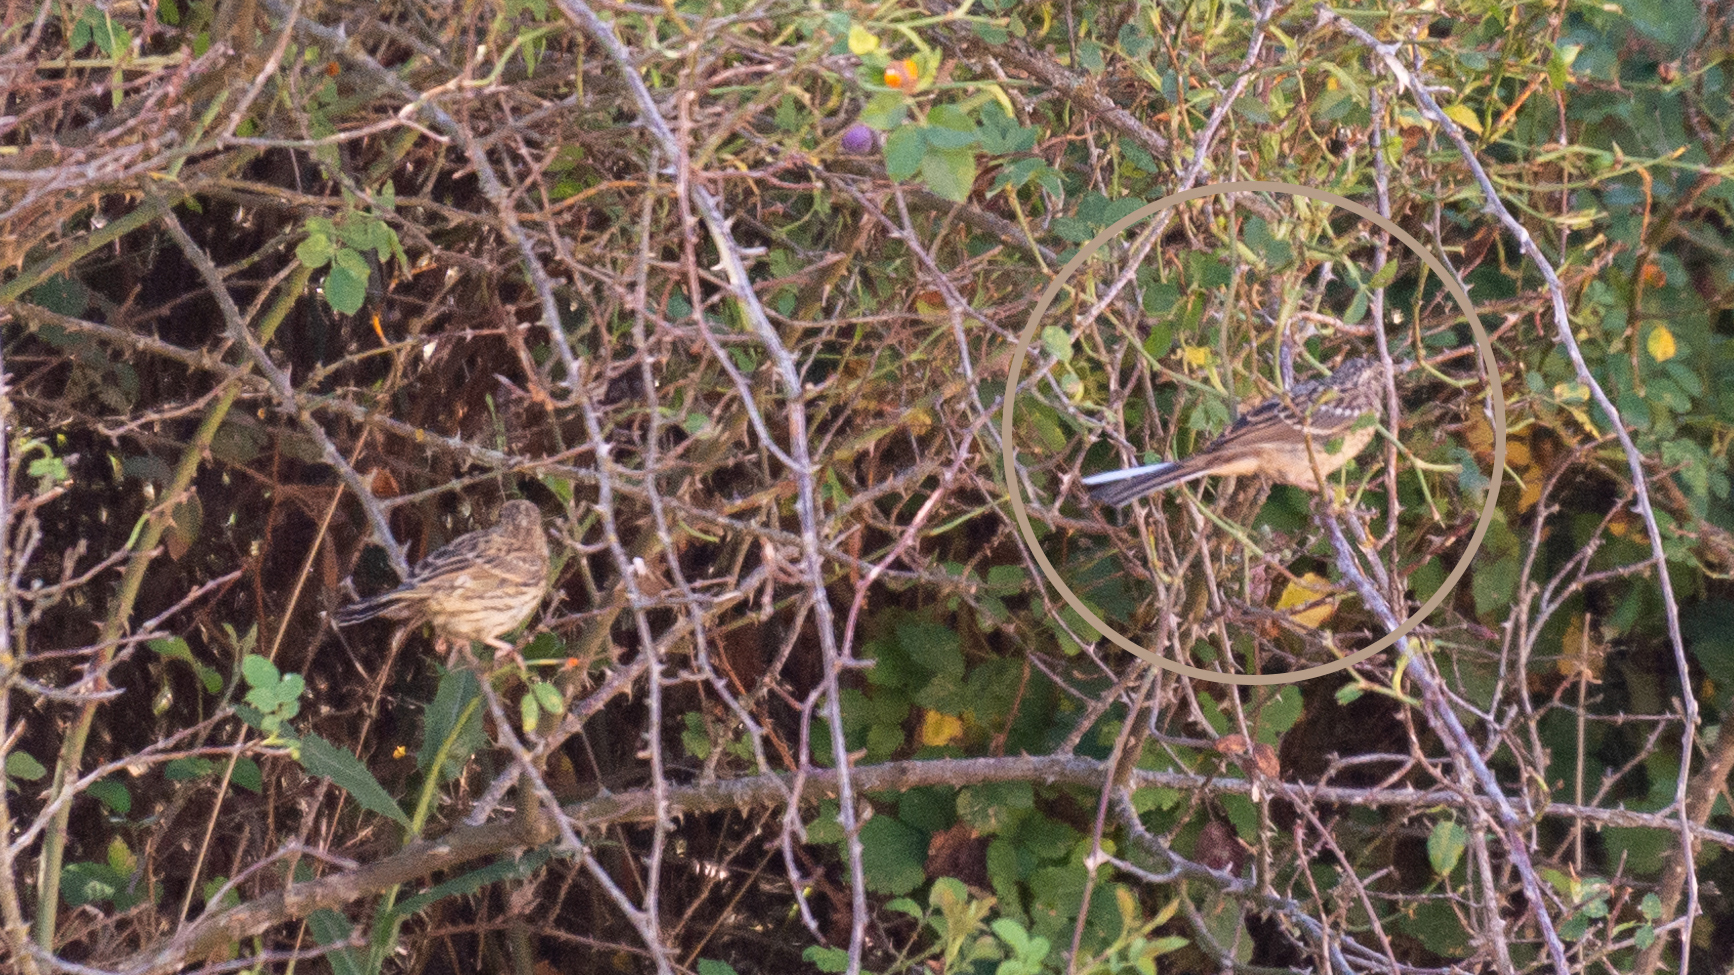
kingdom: Animalia
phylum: Chordata
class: Aves
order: Passeriformes
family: Emberizidae
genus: Emberiza
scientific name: Emberiza cirlus
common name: Cirl bunting
